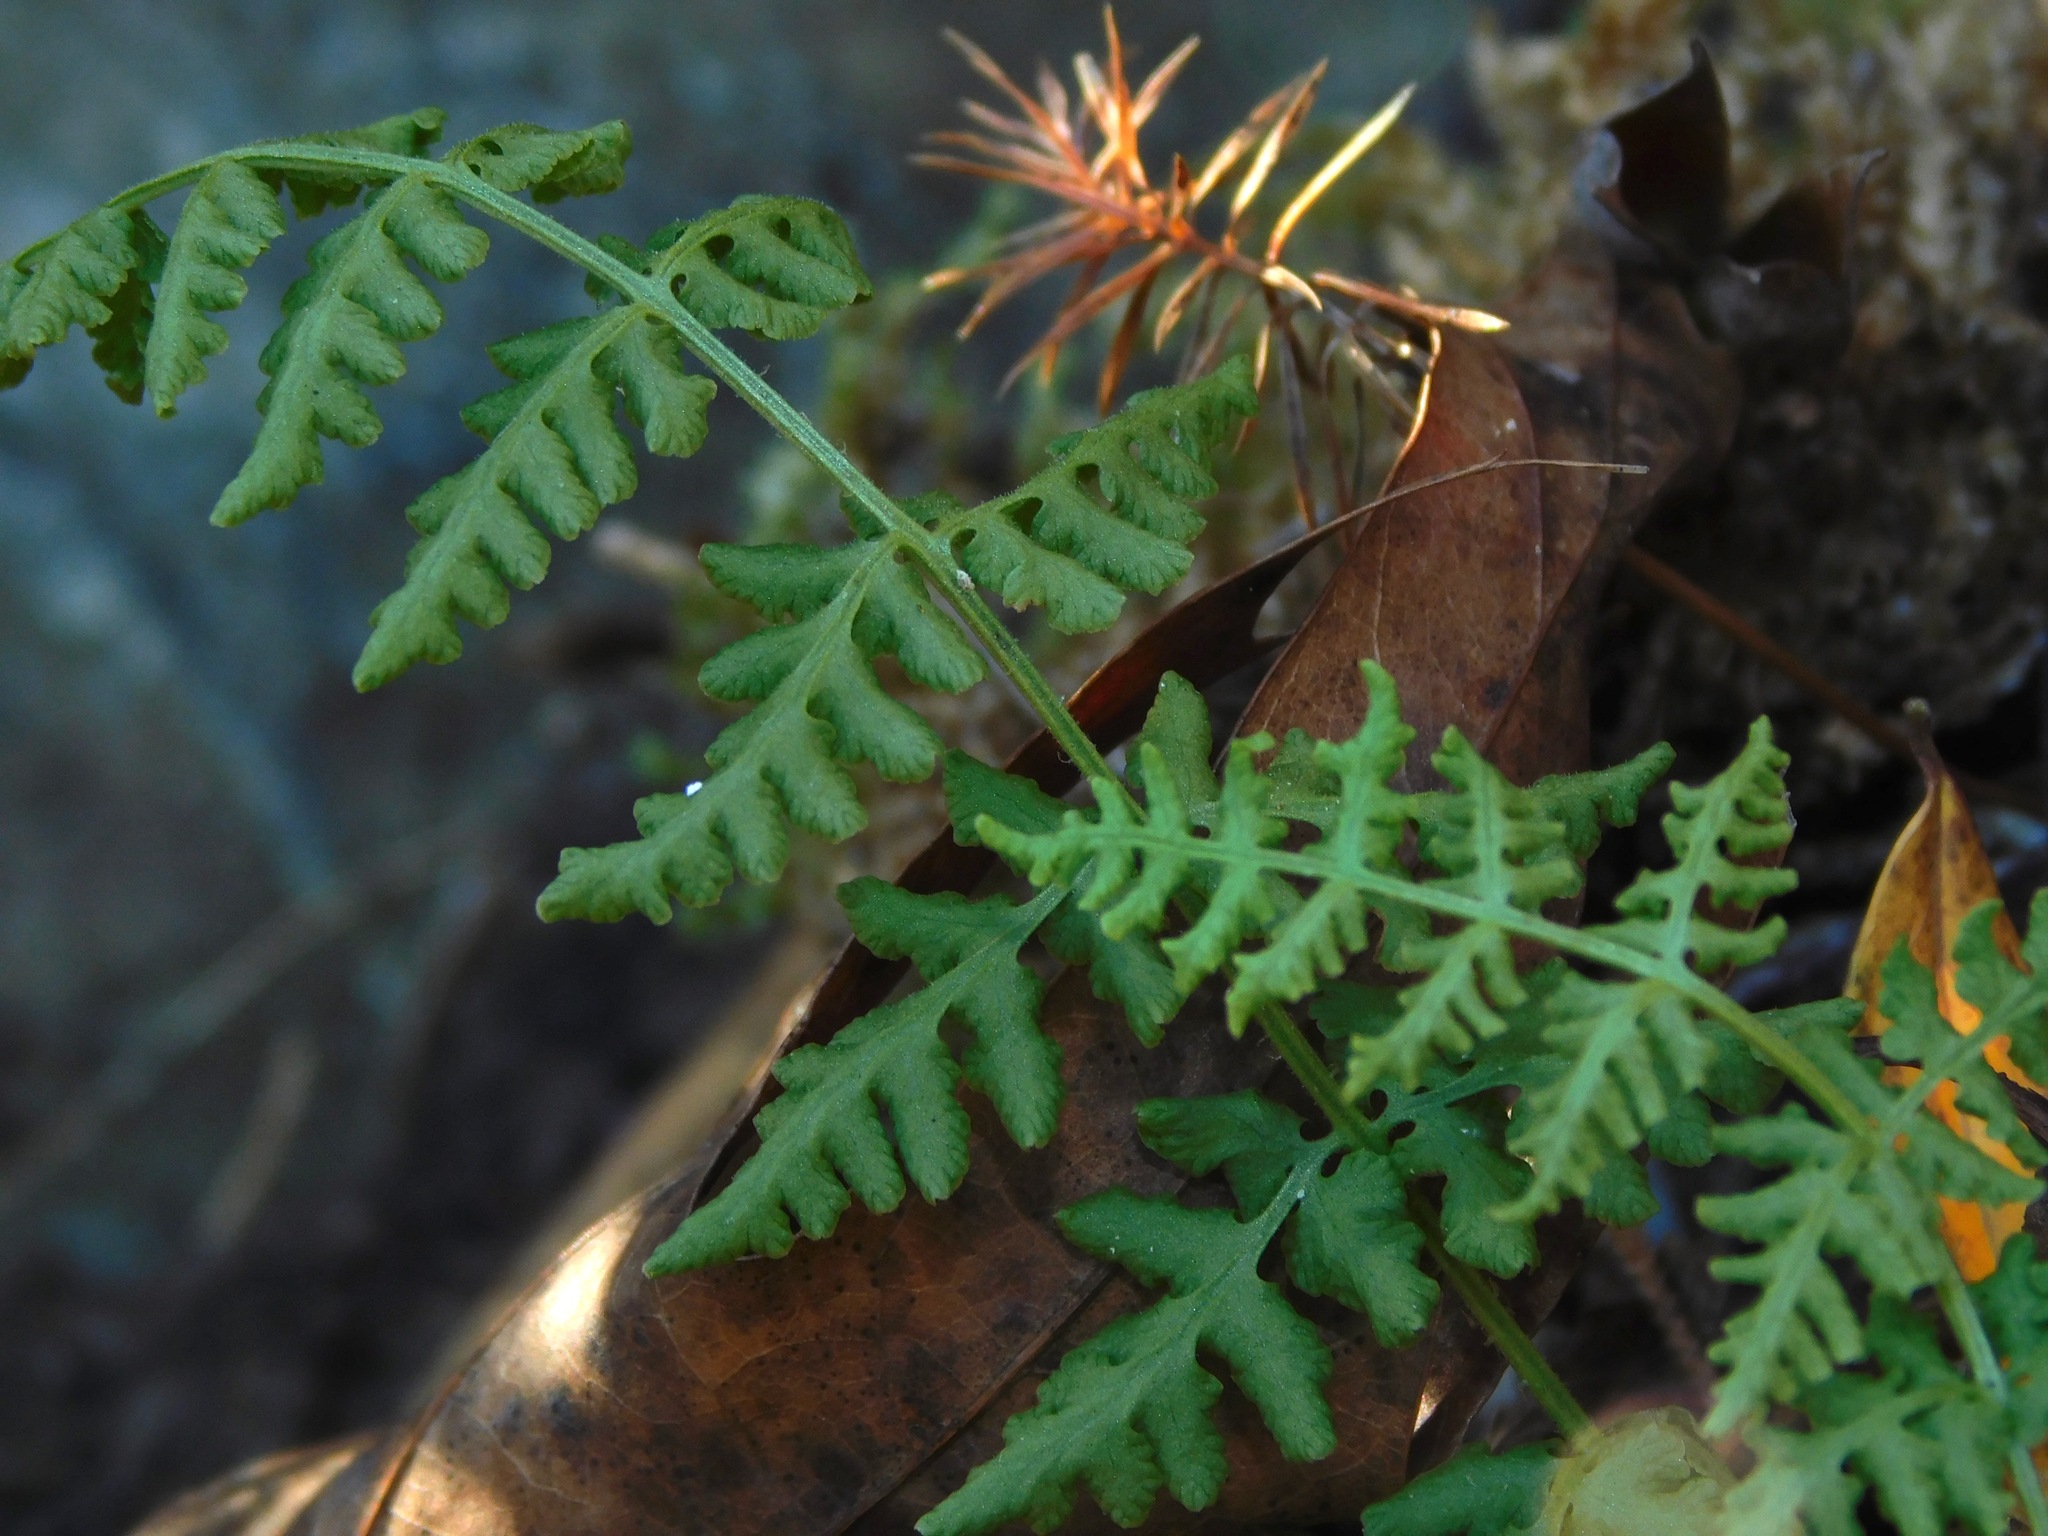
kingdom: Plantae
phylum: Tracheophyta
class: Polypodiopsida
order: Polypodiales
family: Woodsiaceae
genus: Physematium
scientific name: Physematium obtusum
